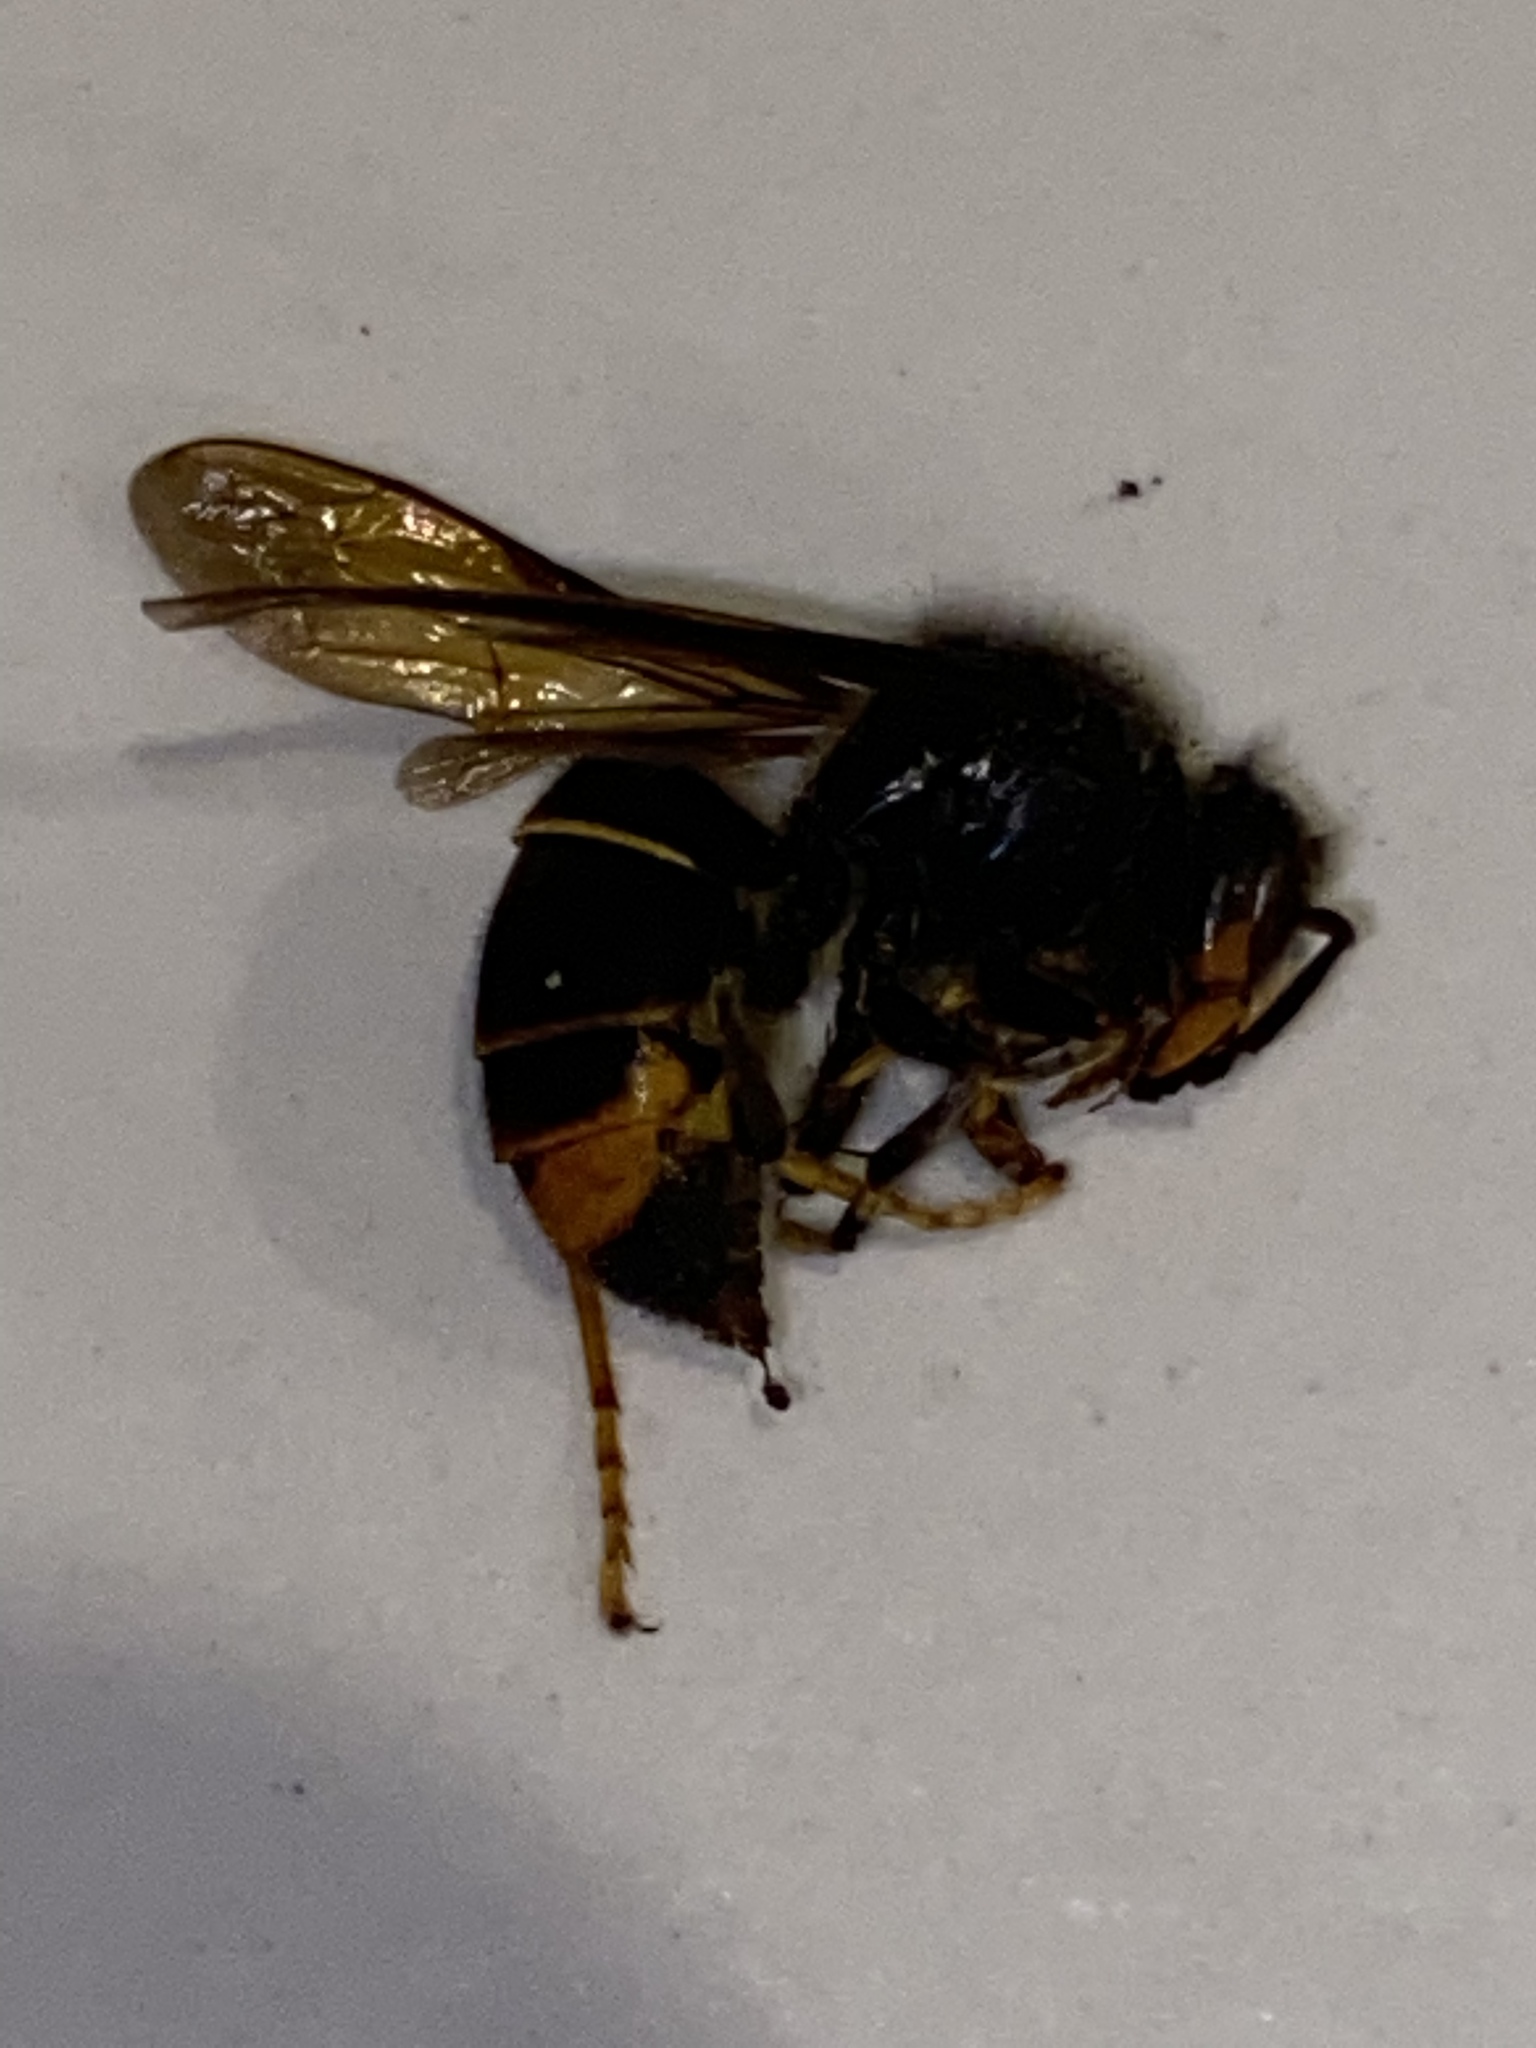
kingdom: Animalia
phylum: Arthropoda
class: Insecta
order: Hymenoptera
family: Vespidae
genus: Vespa
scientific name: Vespa velutina
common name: Asian hornet
